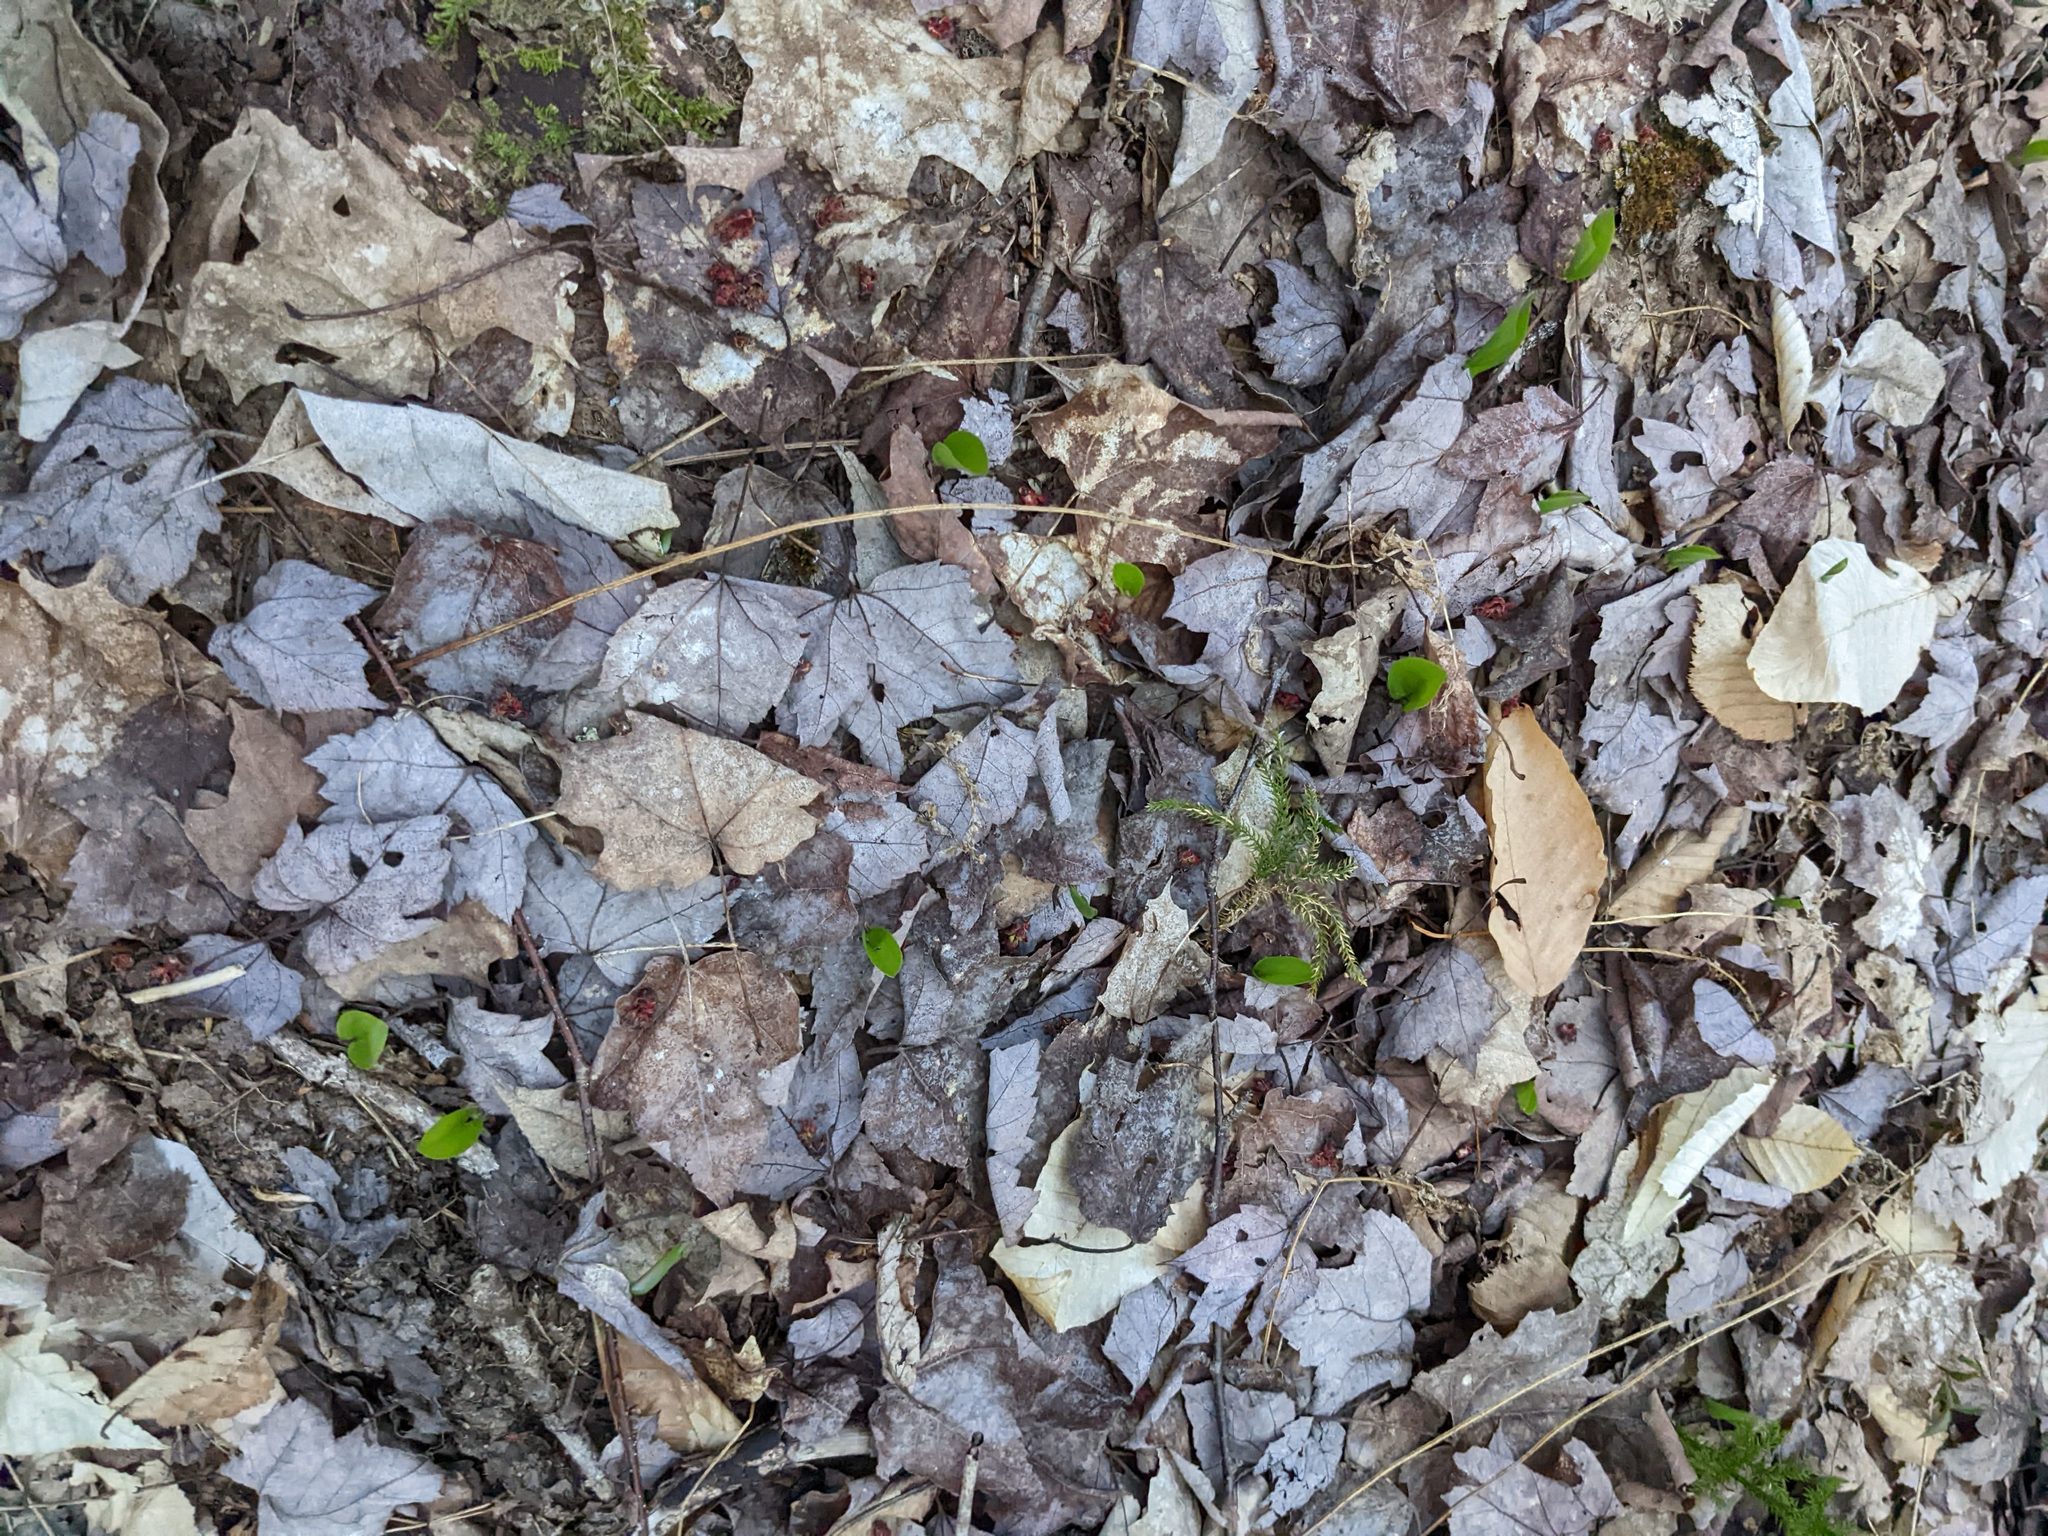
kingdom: Plantae
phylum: Tracheophyta
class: Liliopsida
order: Asparagales
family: Asparagaceae
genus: Maianthemum
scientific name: Maianthemum canadense
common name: False lily-of-the-valley
